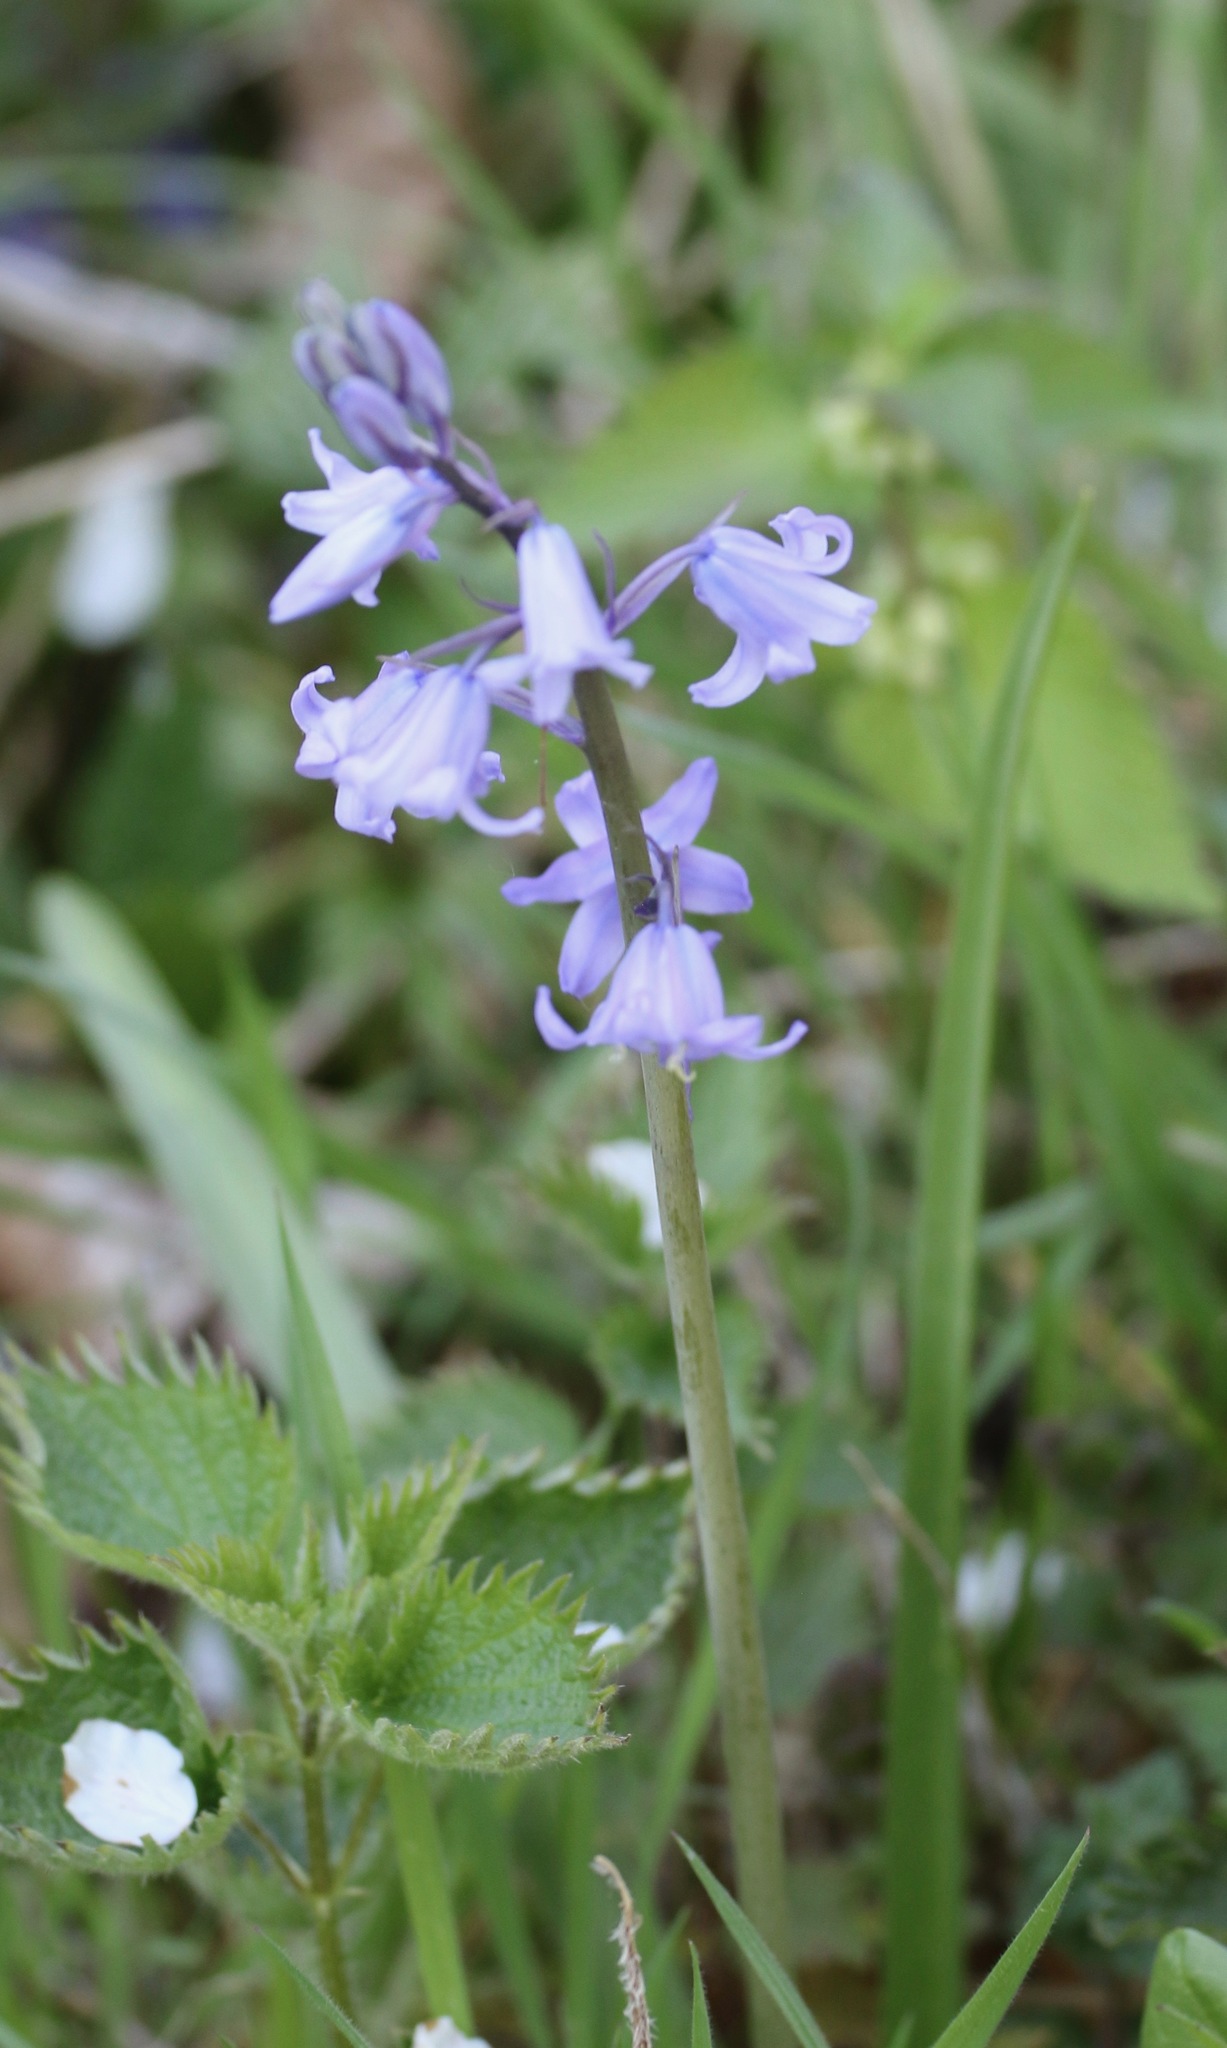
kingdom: Plantae
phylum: Tracheophyta
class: Liliopsida
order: Asparagales
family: Asparagaceae
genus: Hyacinthoides
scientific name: Hyacinthoides hispanica
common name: Spanish bluebell
